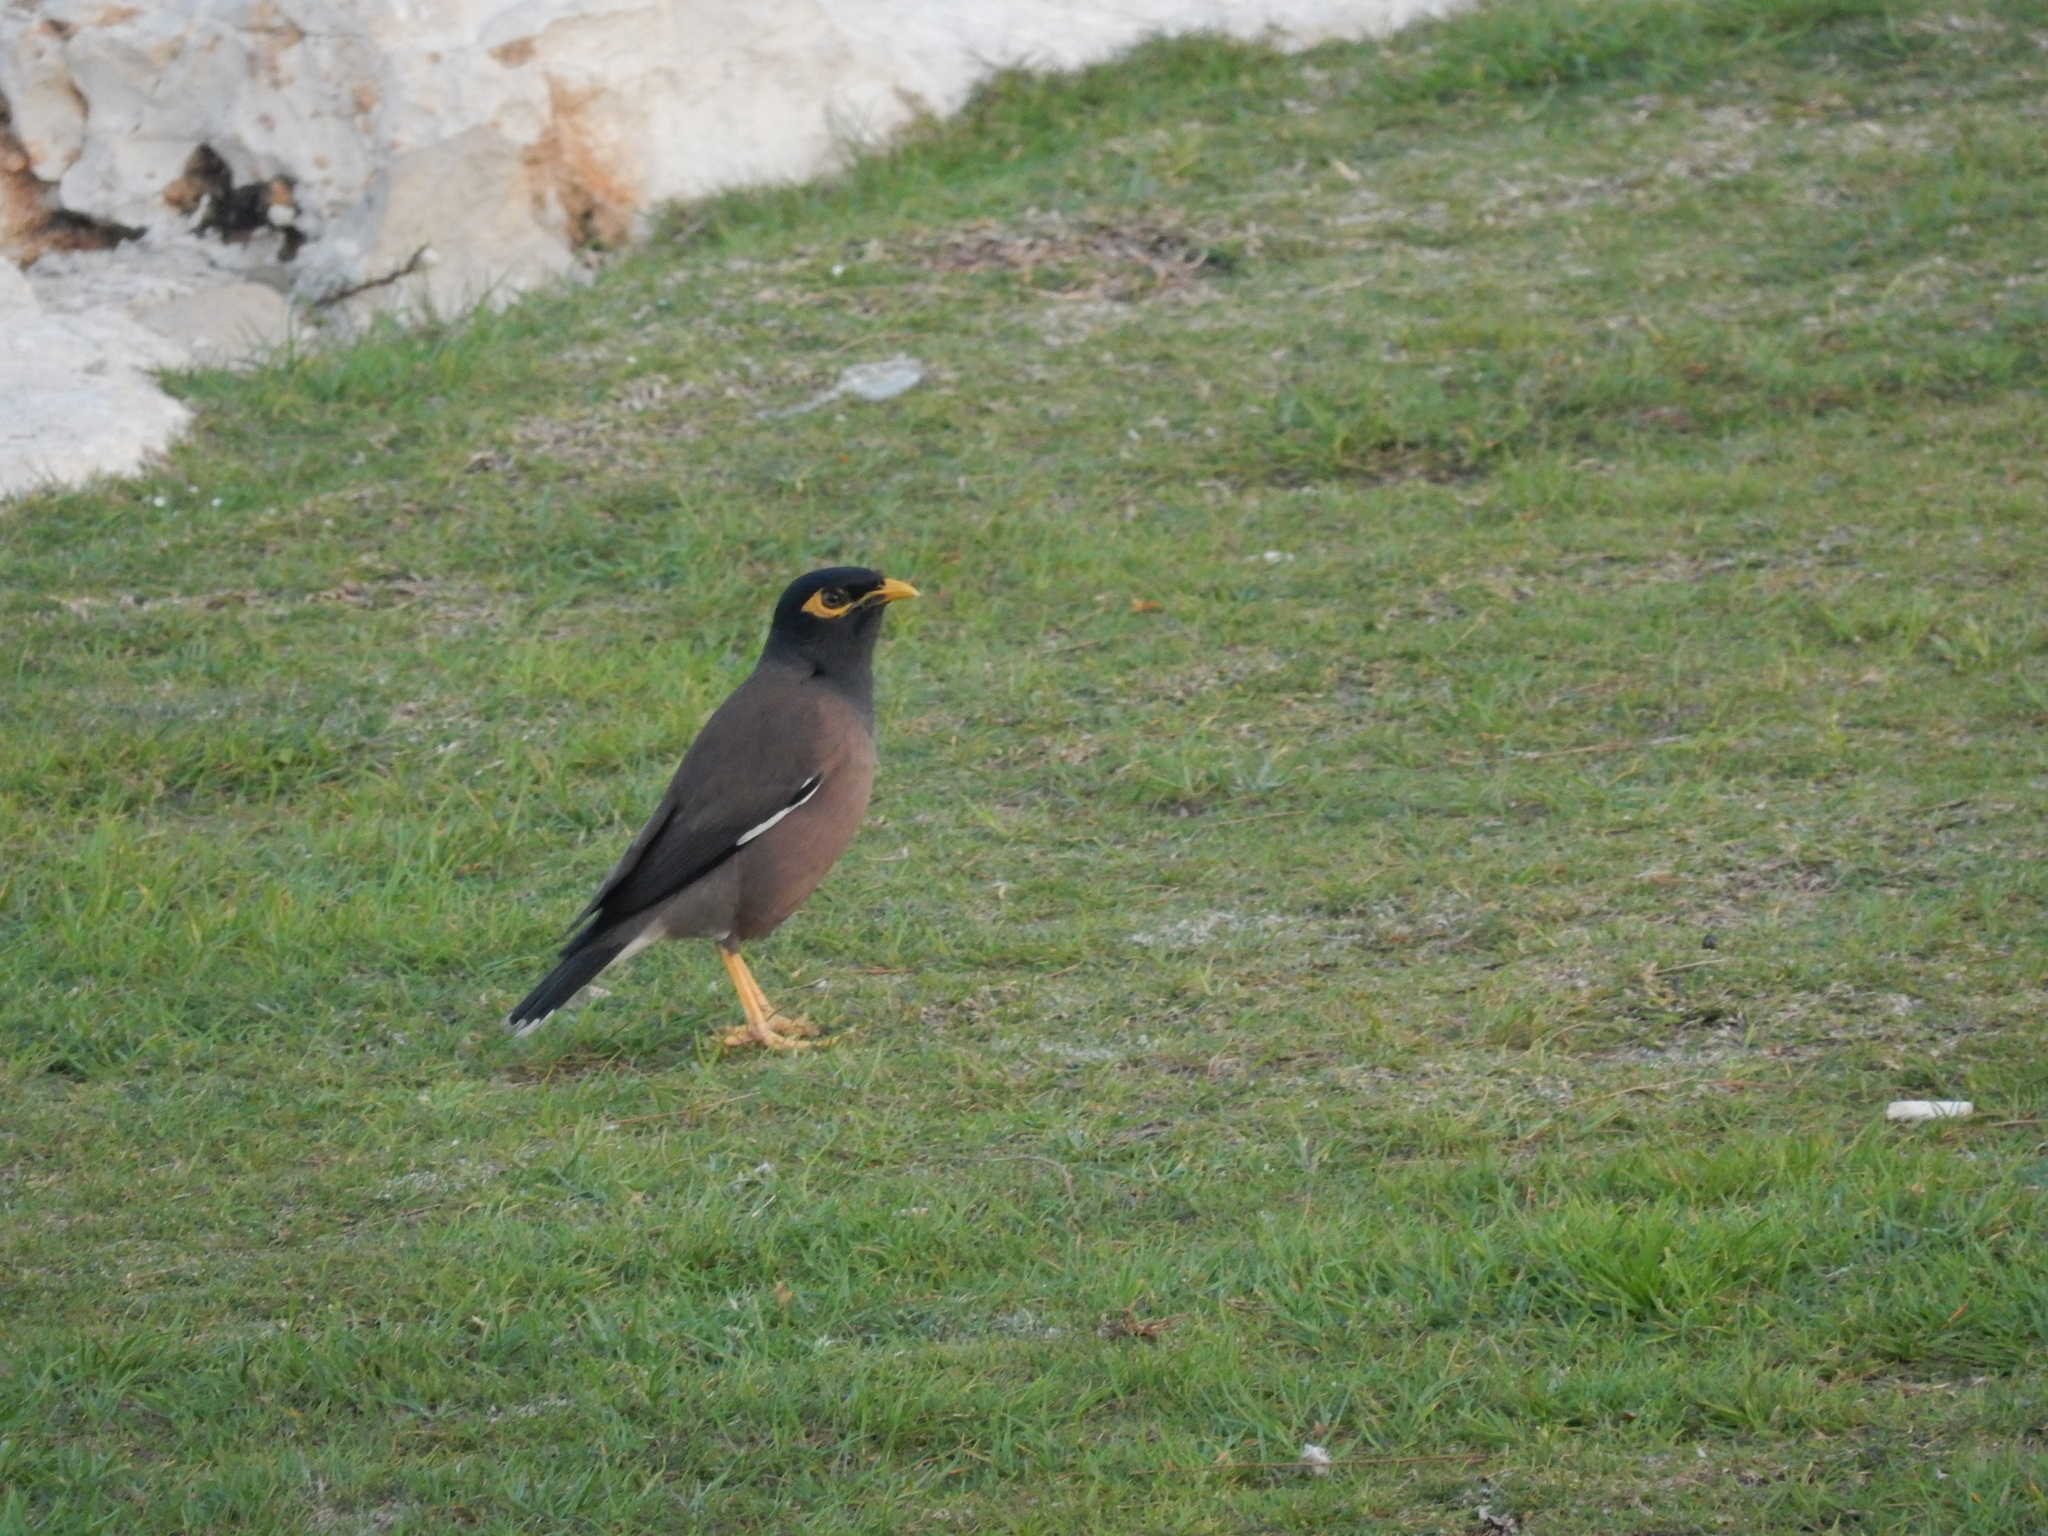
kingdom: Animalia
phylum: Chordata
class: Aves
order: Passeriformes
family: Sturnidae
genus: Acridotheres
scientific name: Acridotheres tristis
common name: Common myna
